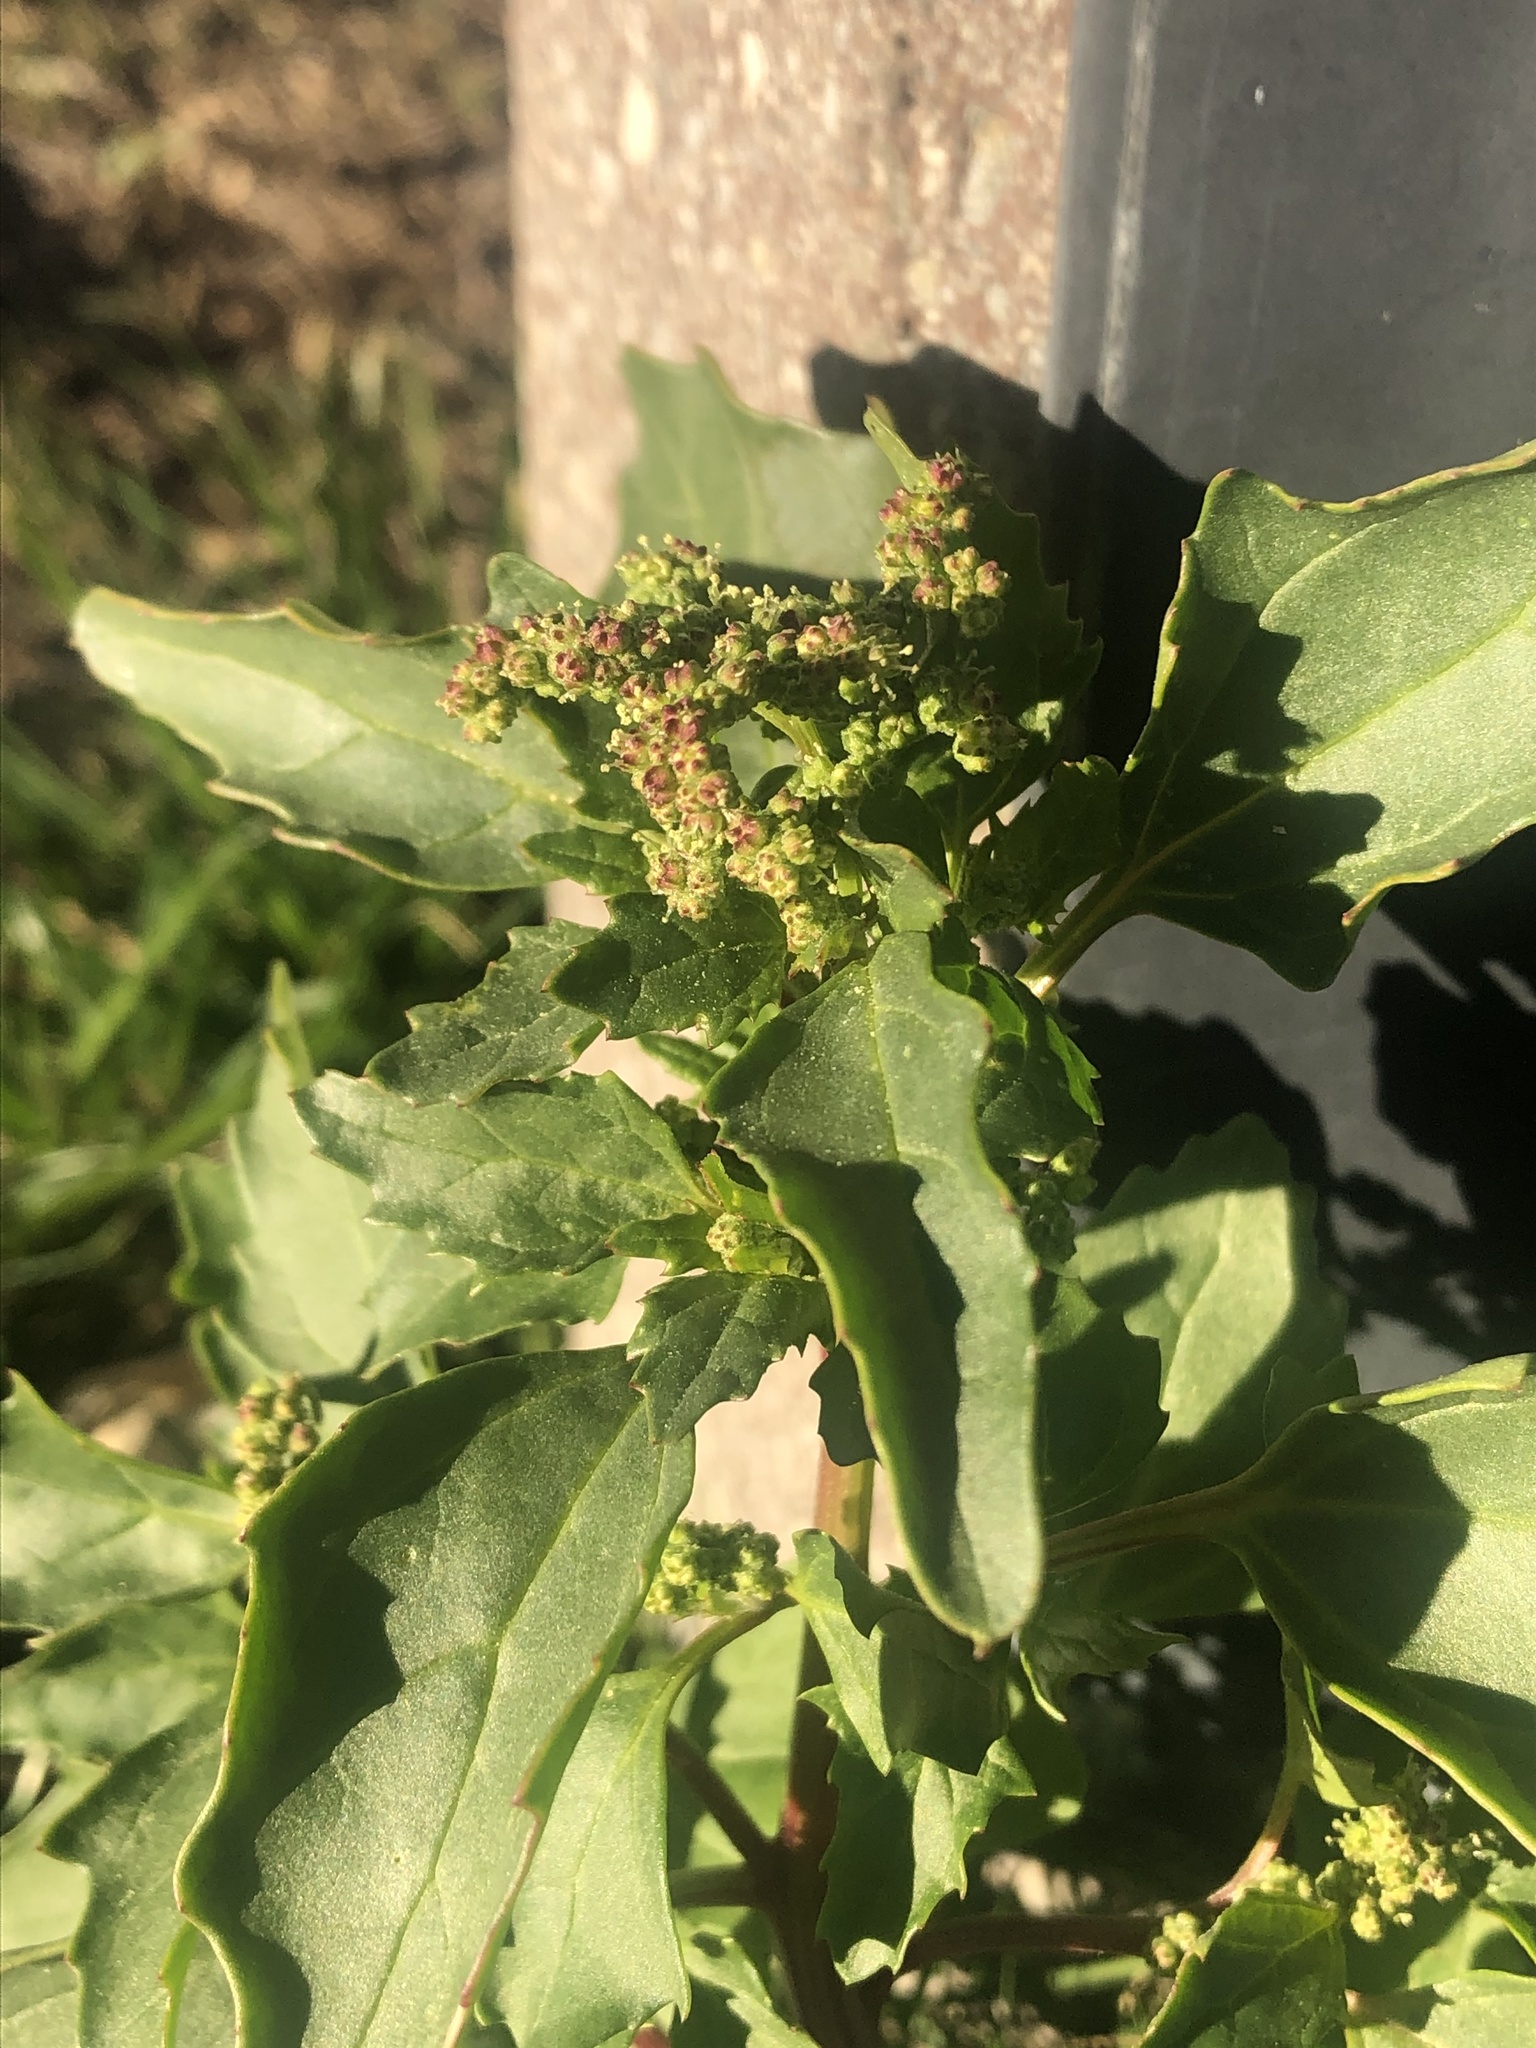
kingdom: Plantae
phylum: Tracheophyta
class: Magnoliopsida
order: Caryophyllales
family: Amaranthaceae
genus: Chenopodiastrum
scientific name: Chenopodiastrum murale
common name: Sowbane
